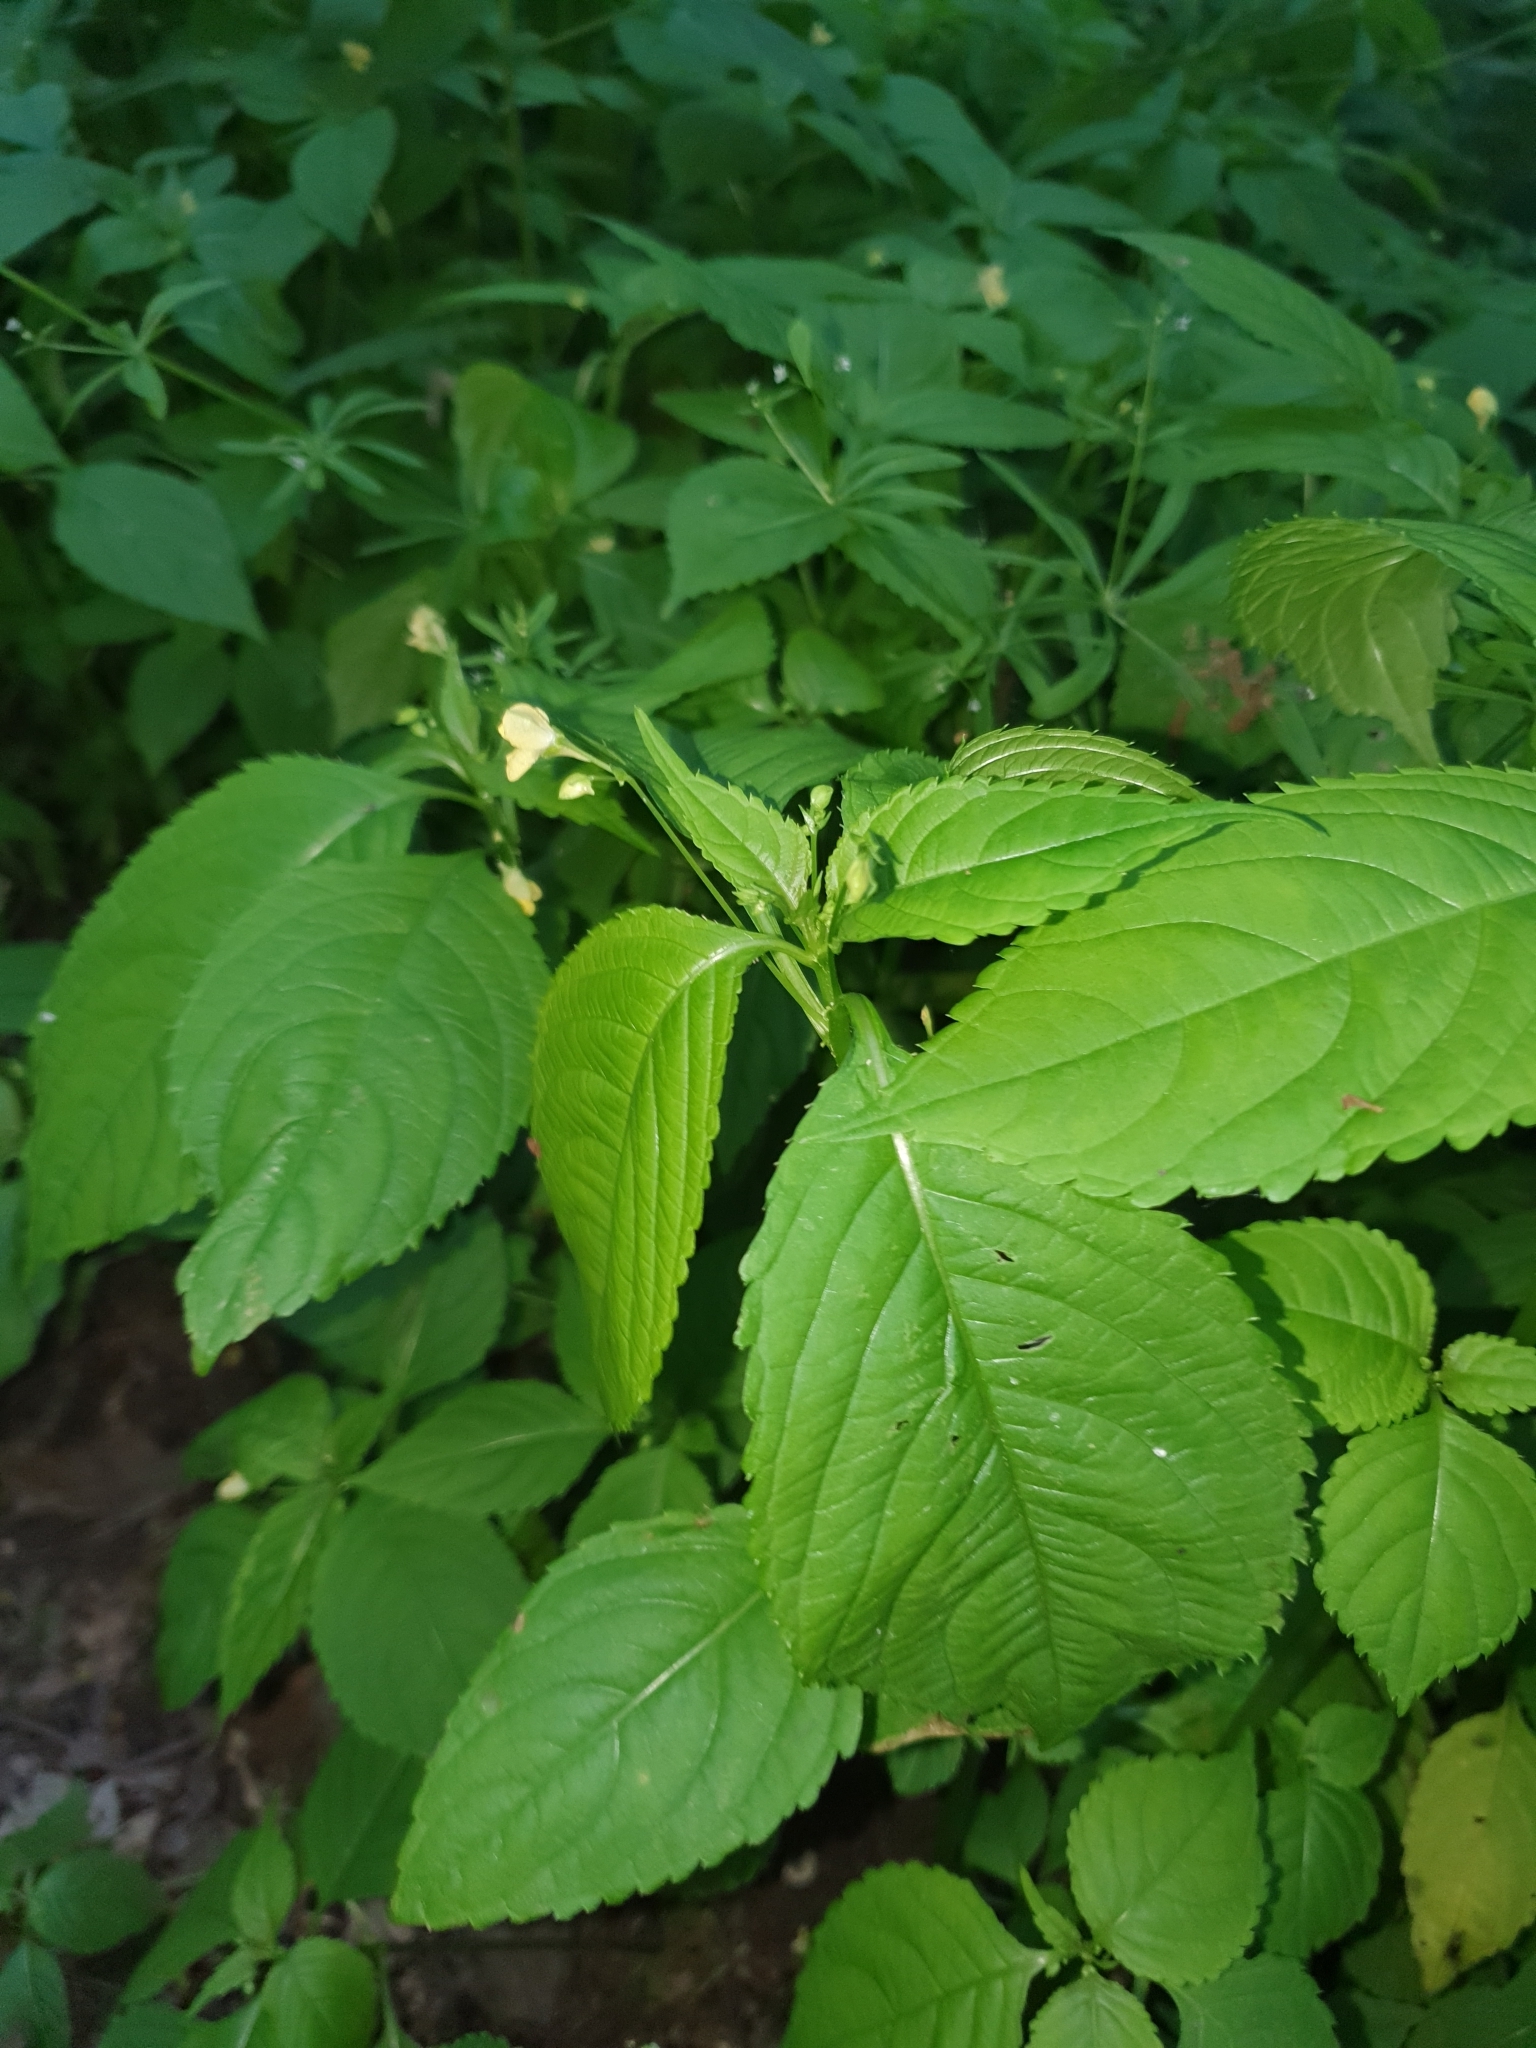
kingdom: Plantae
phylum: Tracheophyta
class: Magnoliopsida
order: Ericales
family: Balsaminaceae
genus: Impatiens
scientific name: Impatiens parviflora
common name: Small balsam
